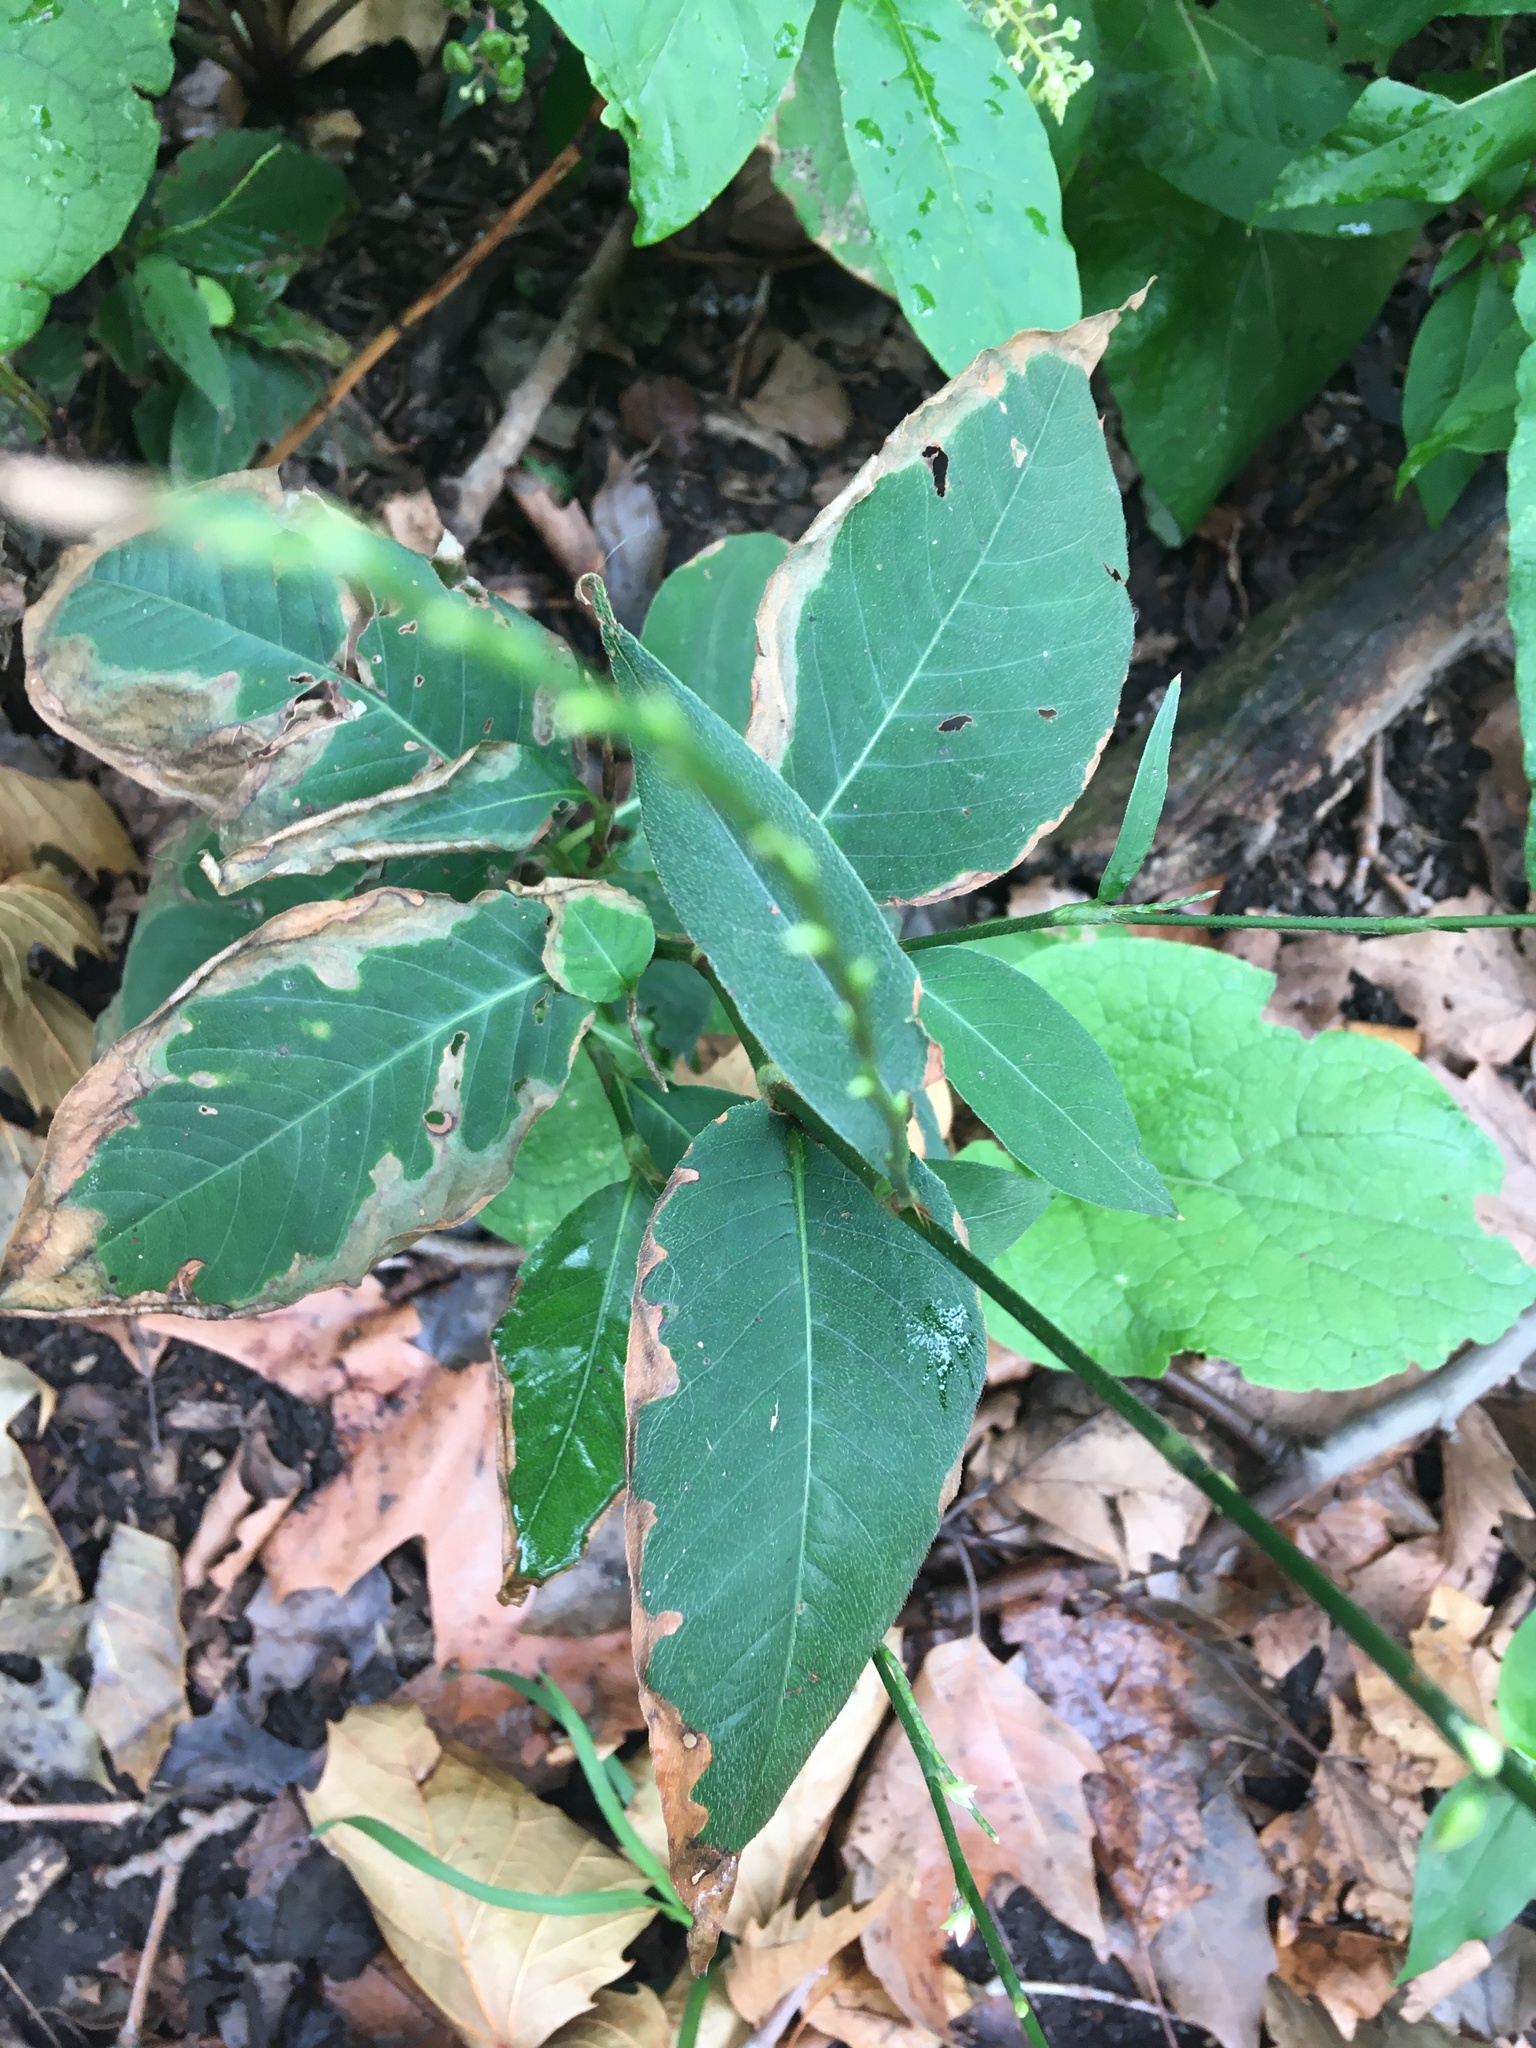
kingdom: Plantae
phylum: Tracheophyta
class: Magnoliopsida
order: Caryophyllales
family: Polygonaceae
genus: Persicaria
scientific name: Persicaria virginiana
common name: Jumpseed
